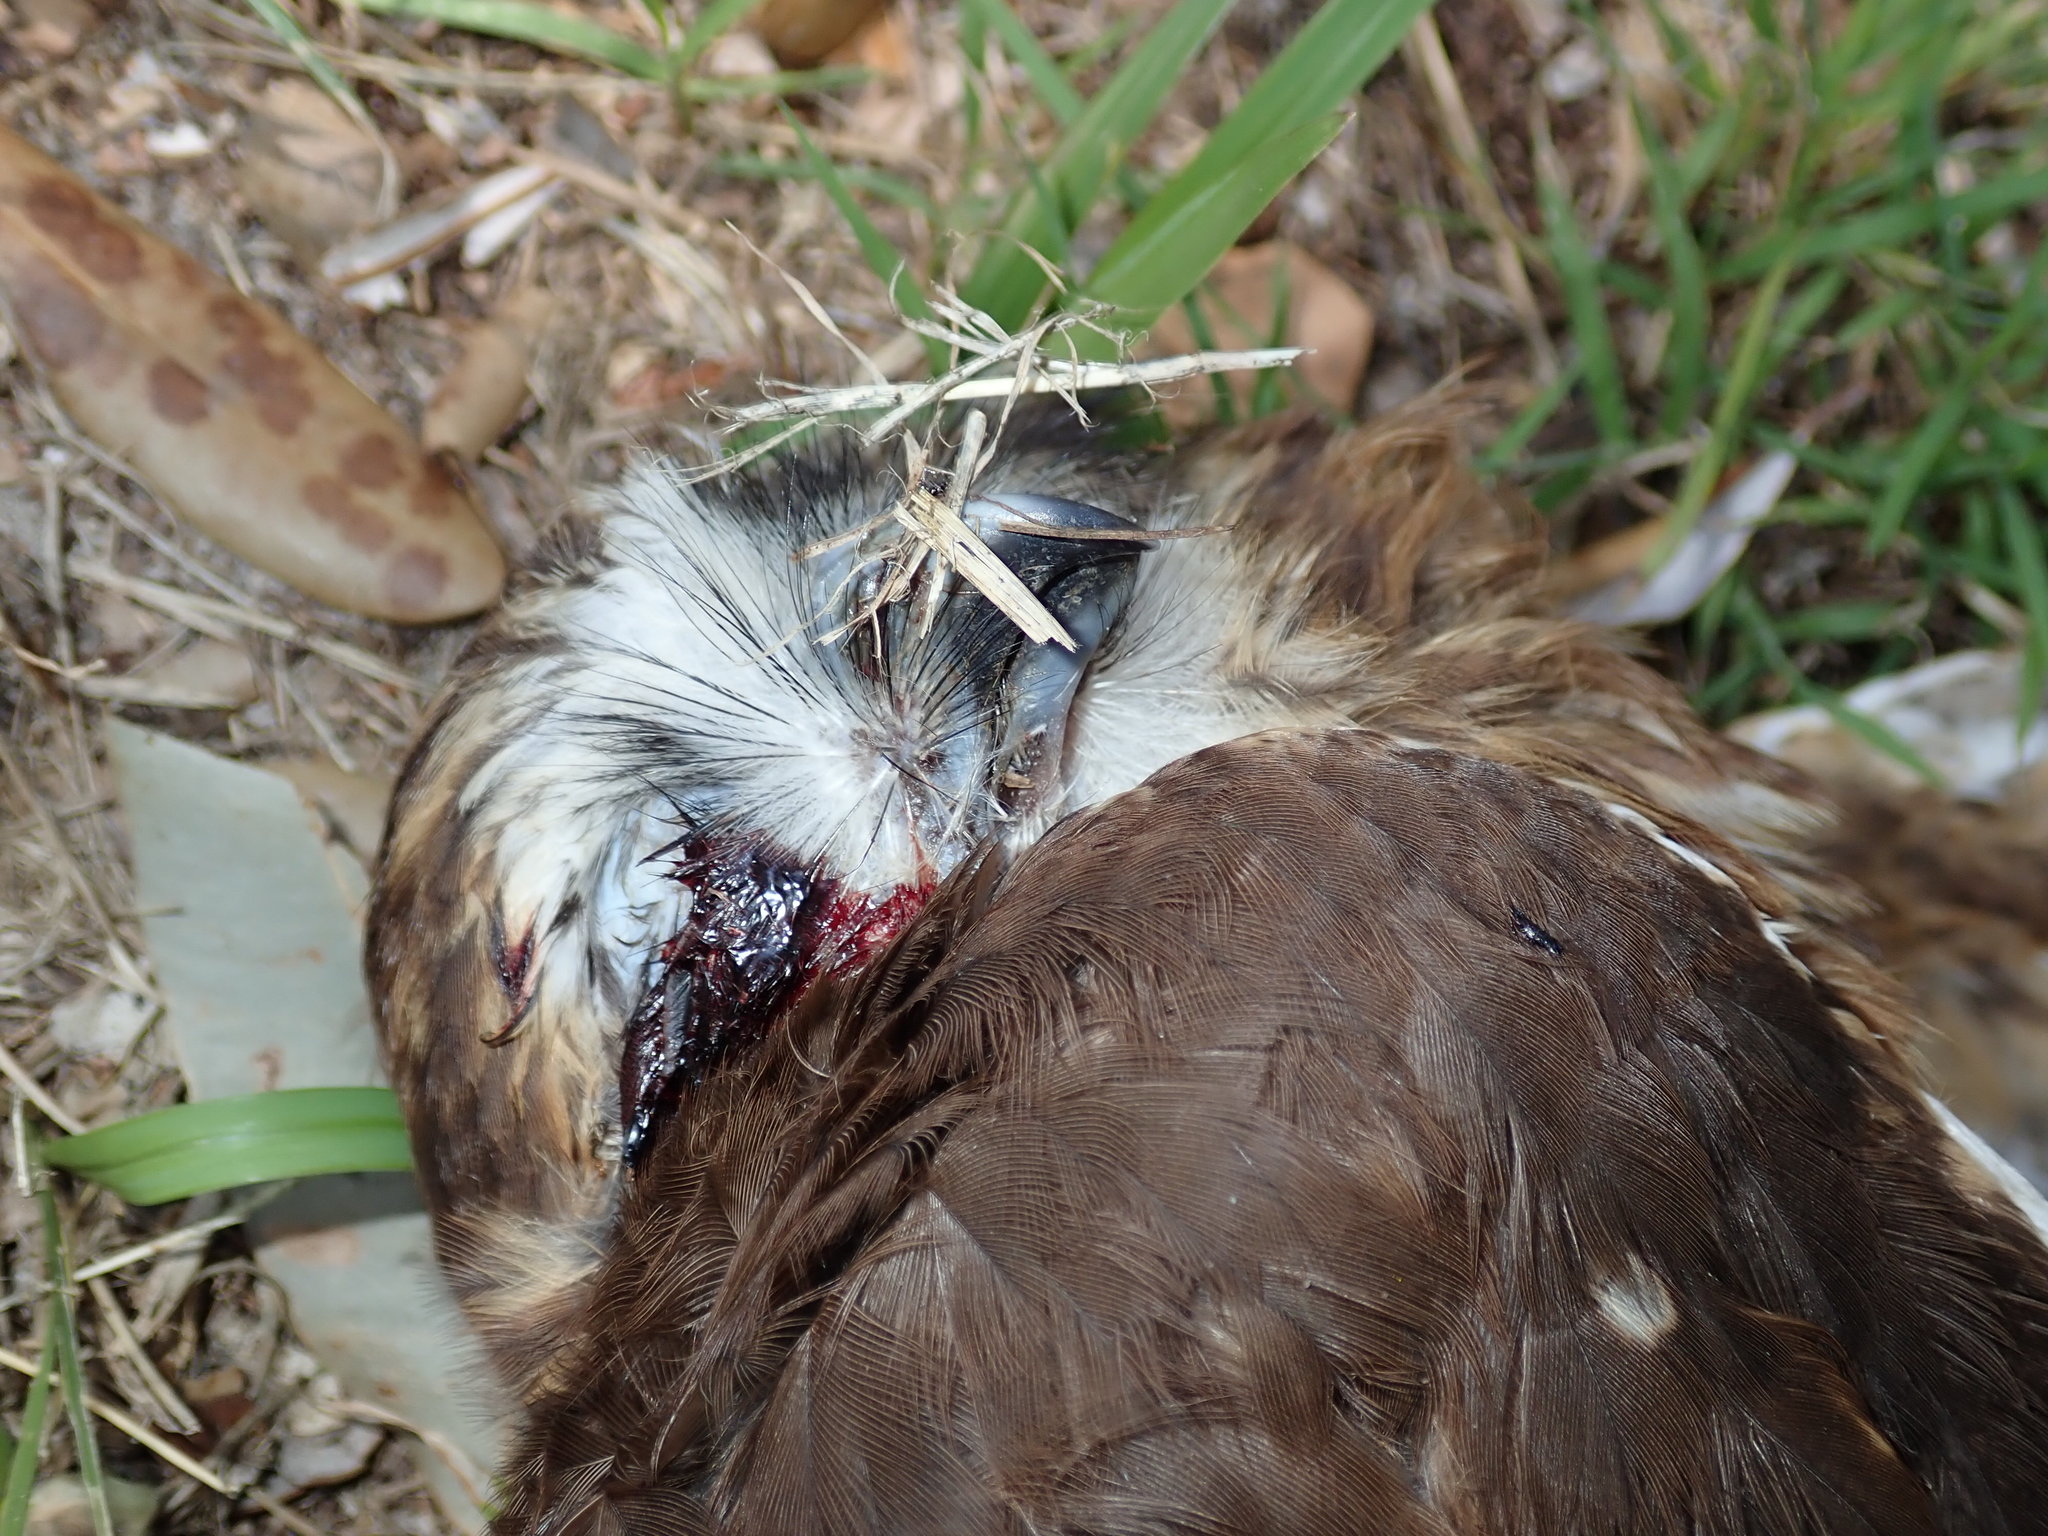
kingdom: Animalia
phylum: Chordata
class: Aves
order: Strigiformes
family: Strigidae
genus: Ninox
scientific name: Ninox boobook
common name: Southern boobook
